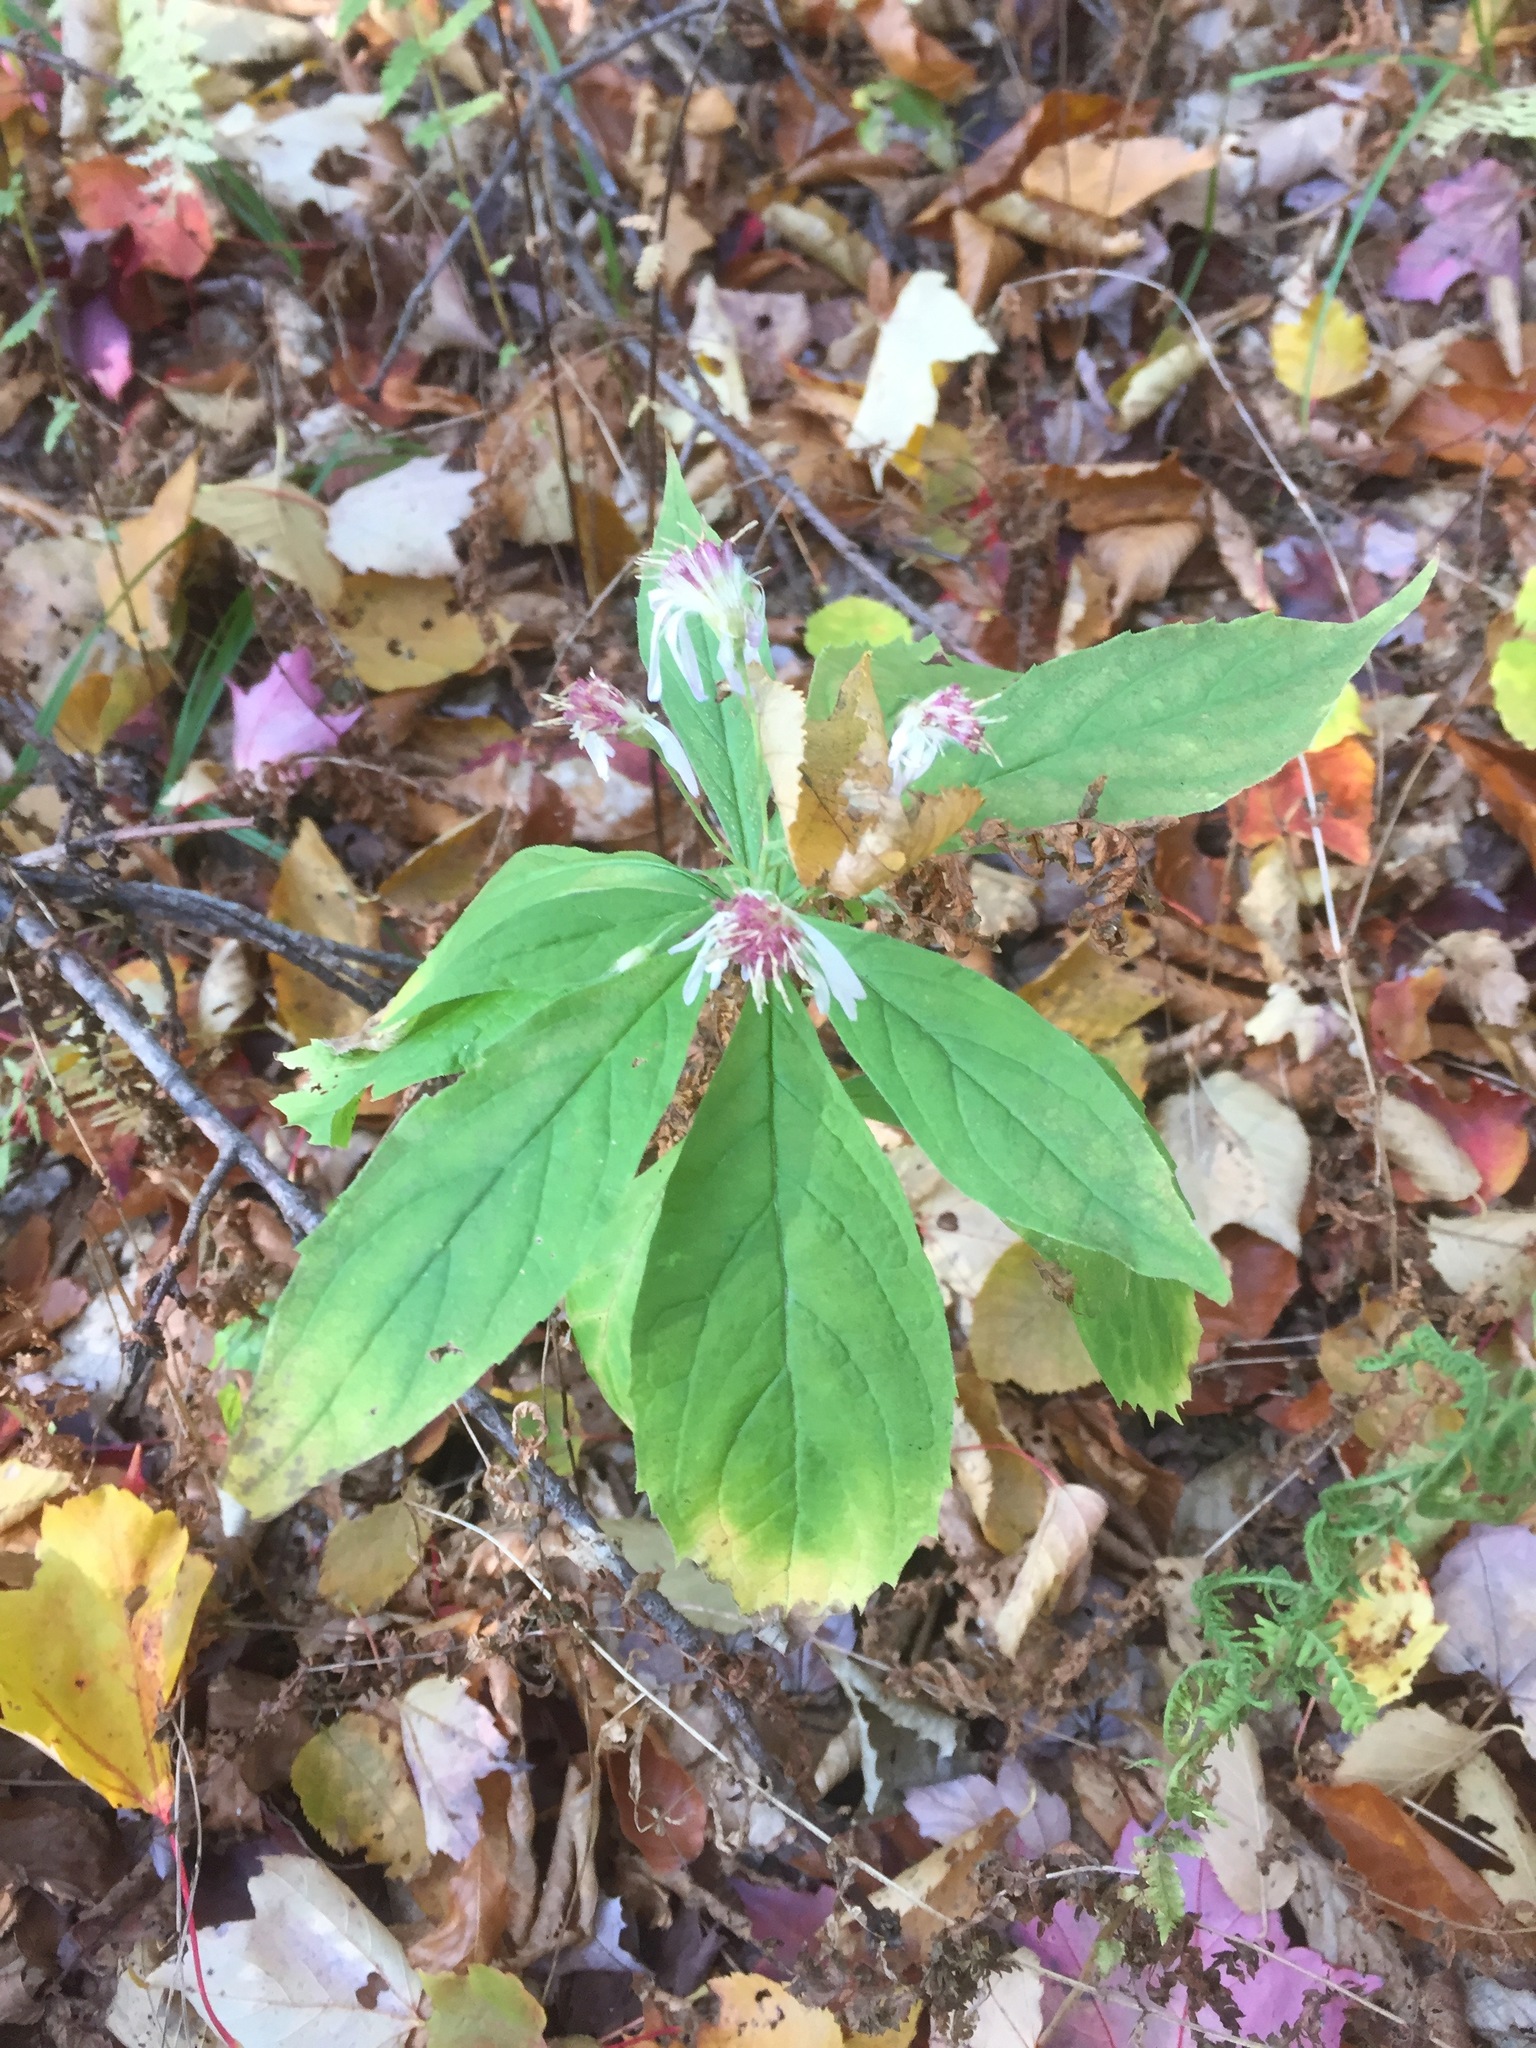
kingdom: Plantae
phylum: Tracheophyta
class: Magnoliopsida
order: Asterales
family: Asteraceae
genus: Oclemena
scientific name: Oclemena acuminata
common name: Mountain aster
